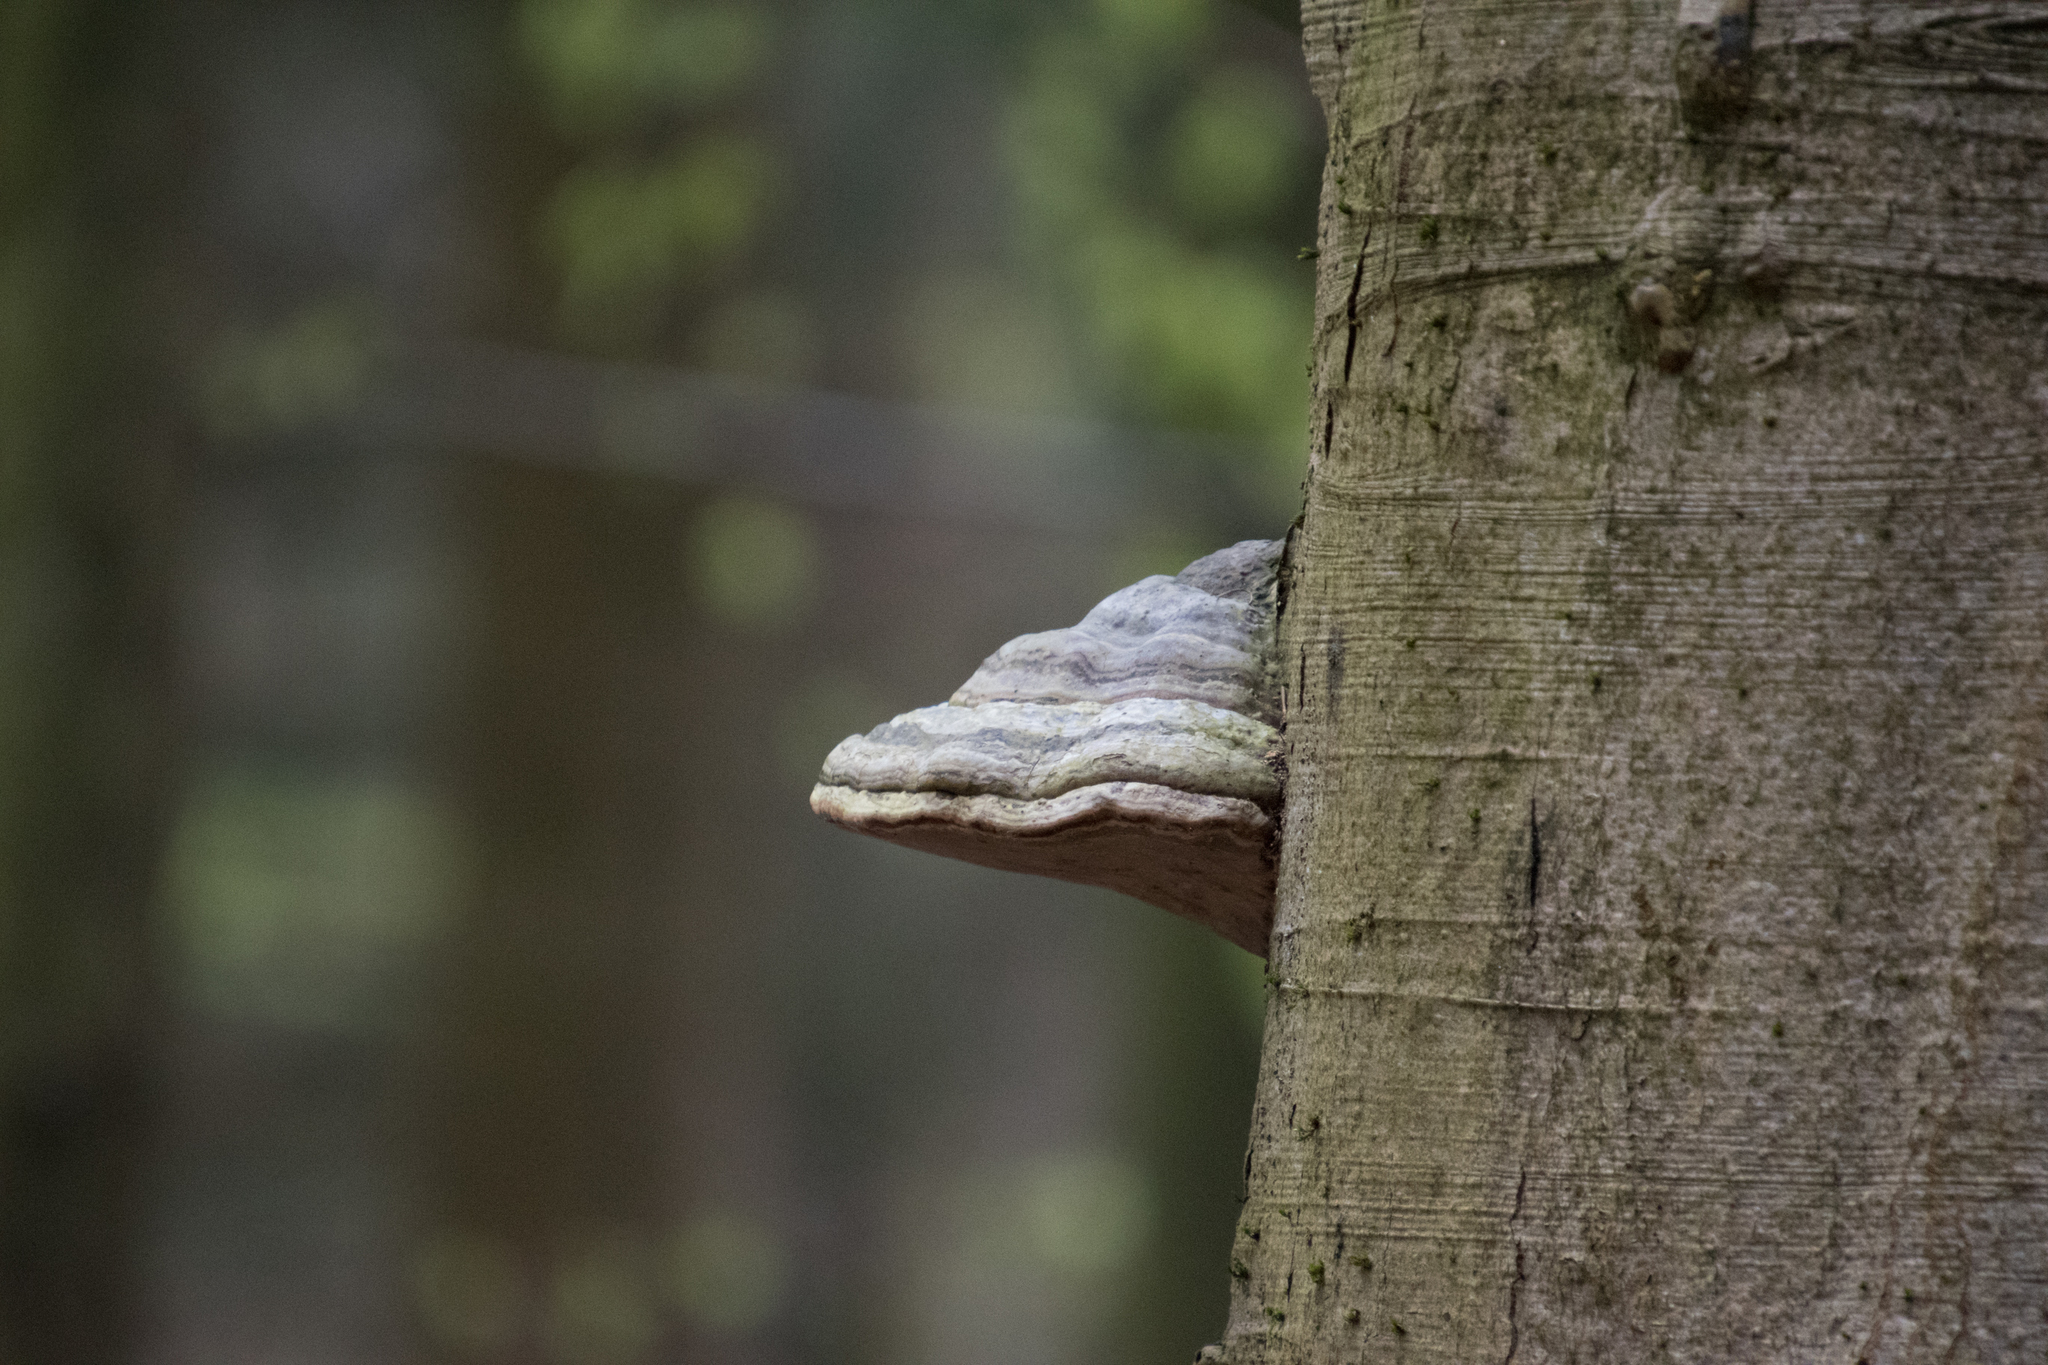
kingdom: Fungi
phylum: Basidiomycota
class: Agaricomycetes
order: Polyporales
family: Polyporaceae
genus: Fomes
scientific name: Fomes fomentarius
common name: Hoof fungus
